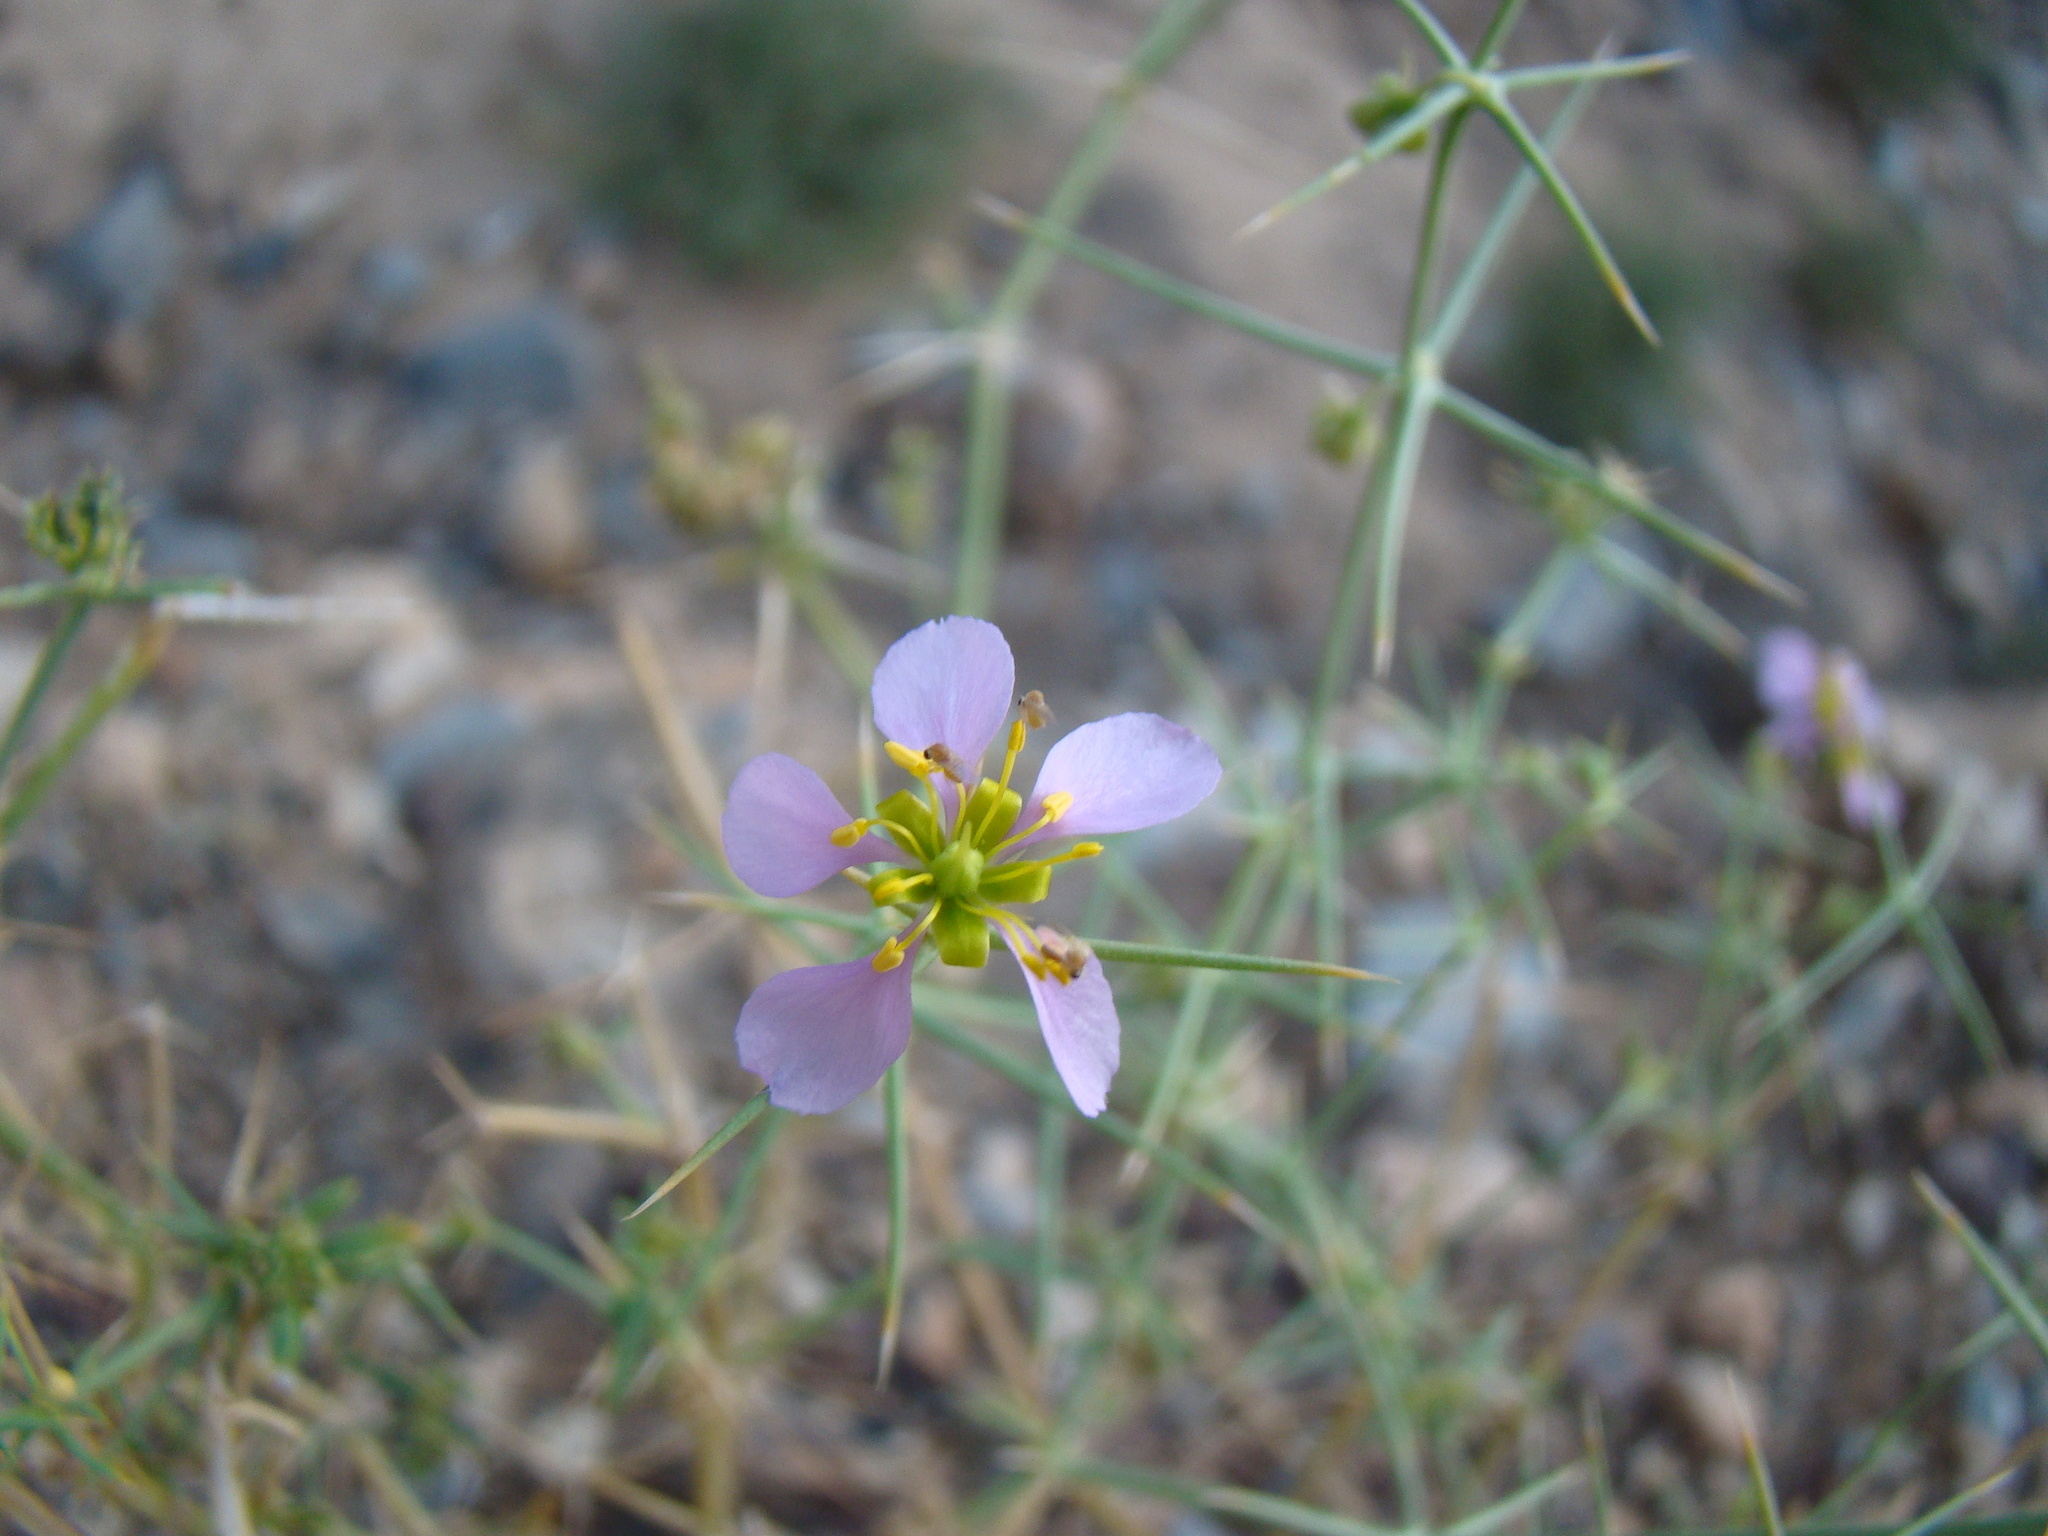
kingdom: Plantae
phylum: Tracheophyta
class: Magnoliopsida
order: Zygophyllales
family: Zygophyllaceae
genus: Fagonia
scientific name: Fagonia indica
